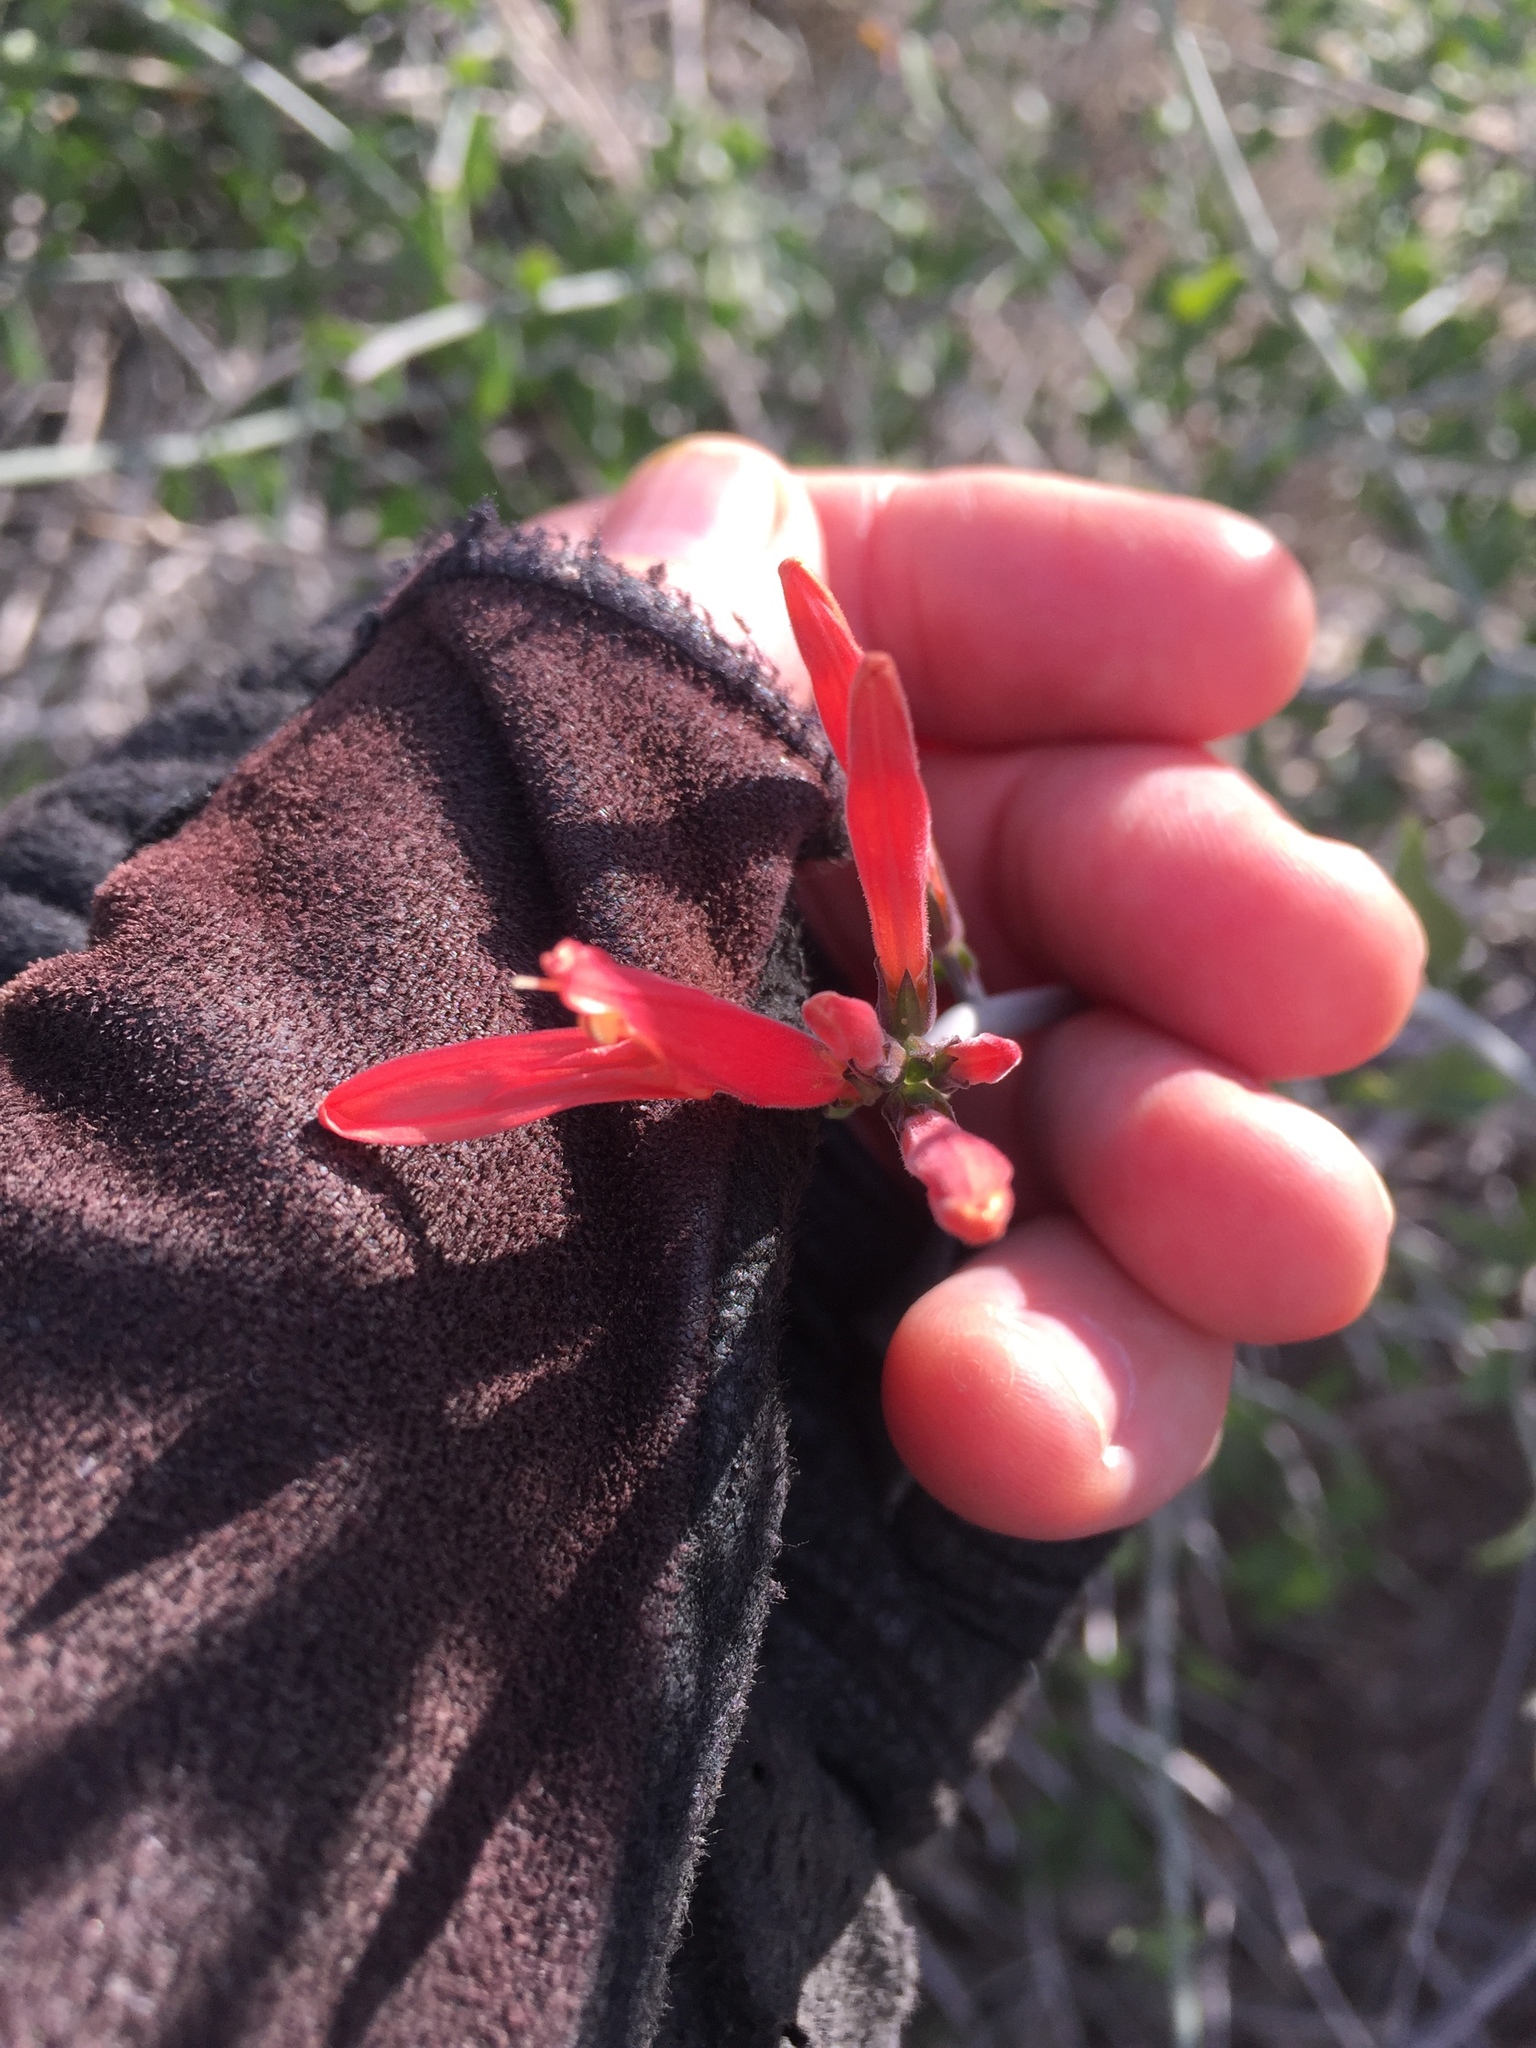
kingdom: Plantae
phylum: Tracheophyta
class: Magnoliopsida
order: Lamiales
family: Acanthaceae
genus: Justicia
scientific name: Justicia californica
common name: Chuparosa-honeysuckle
